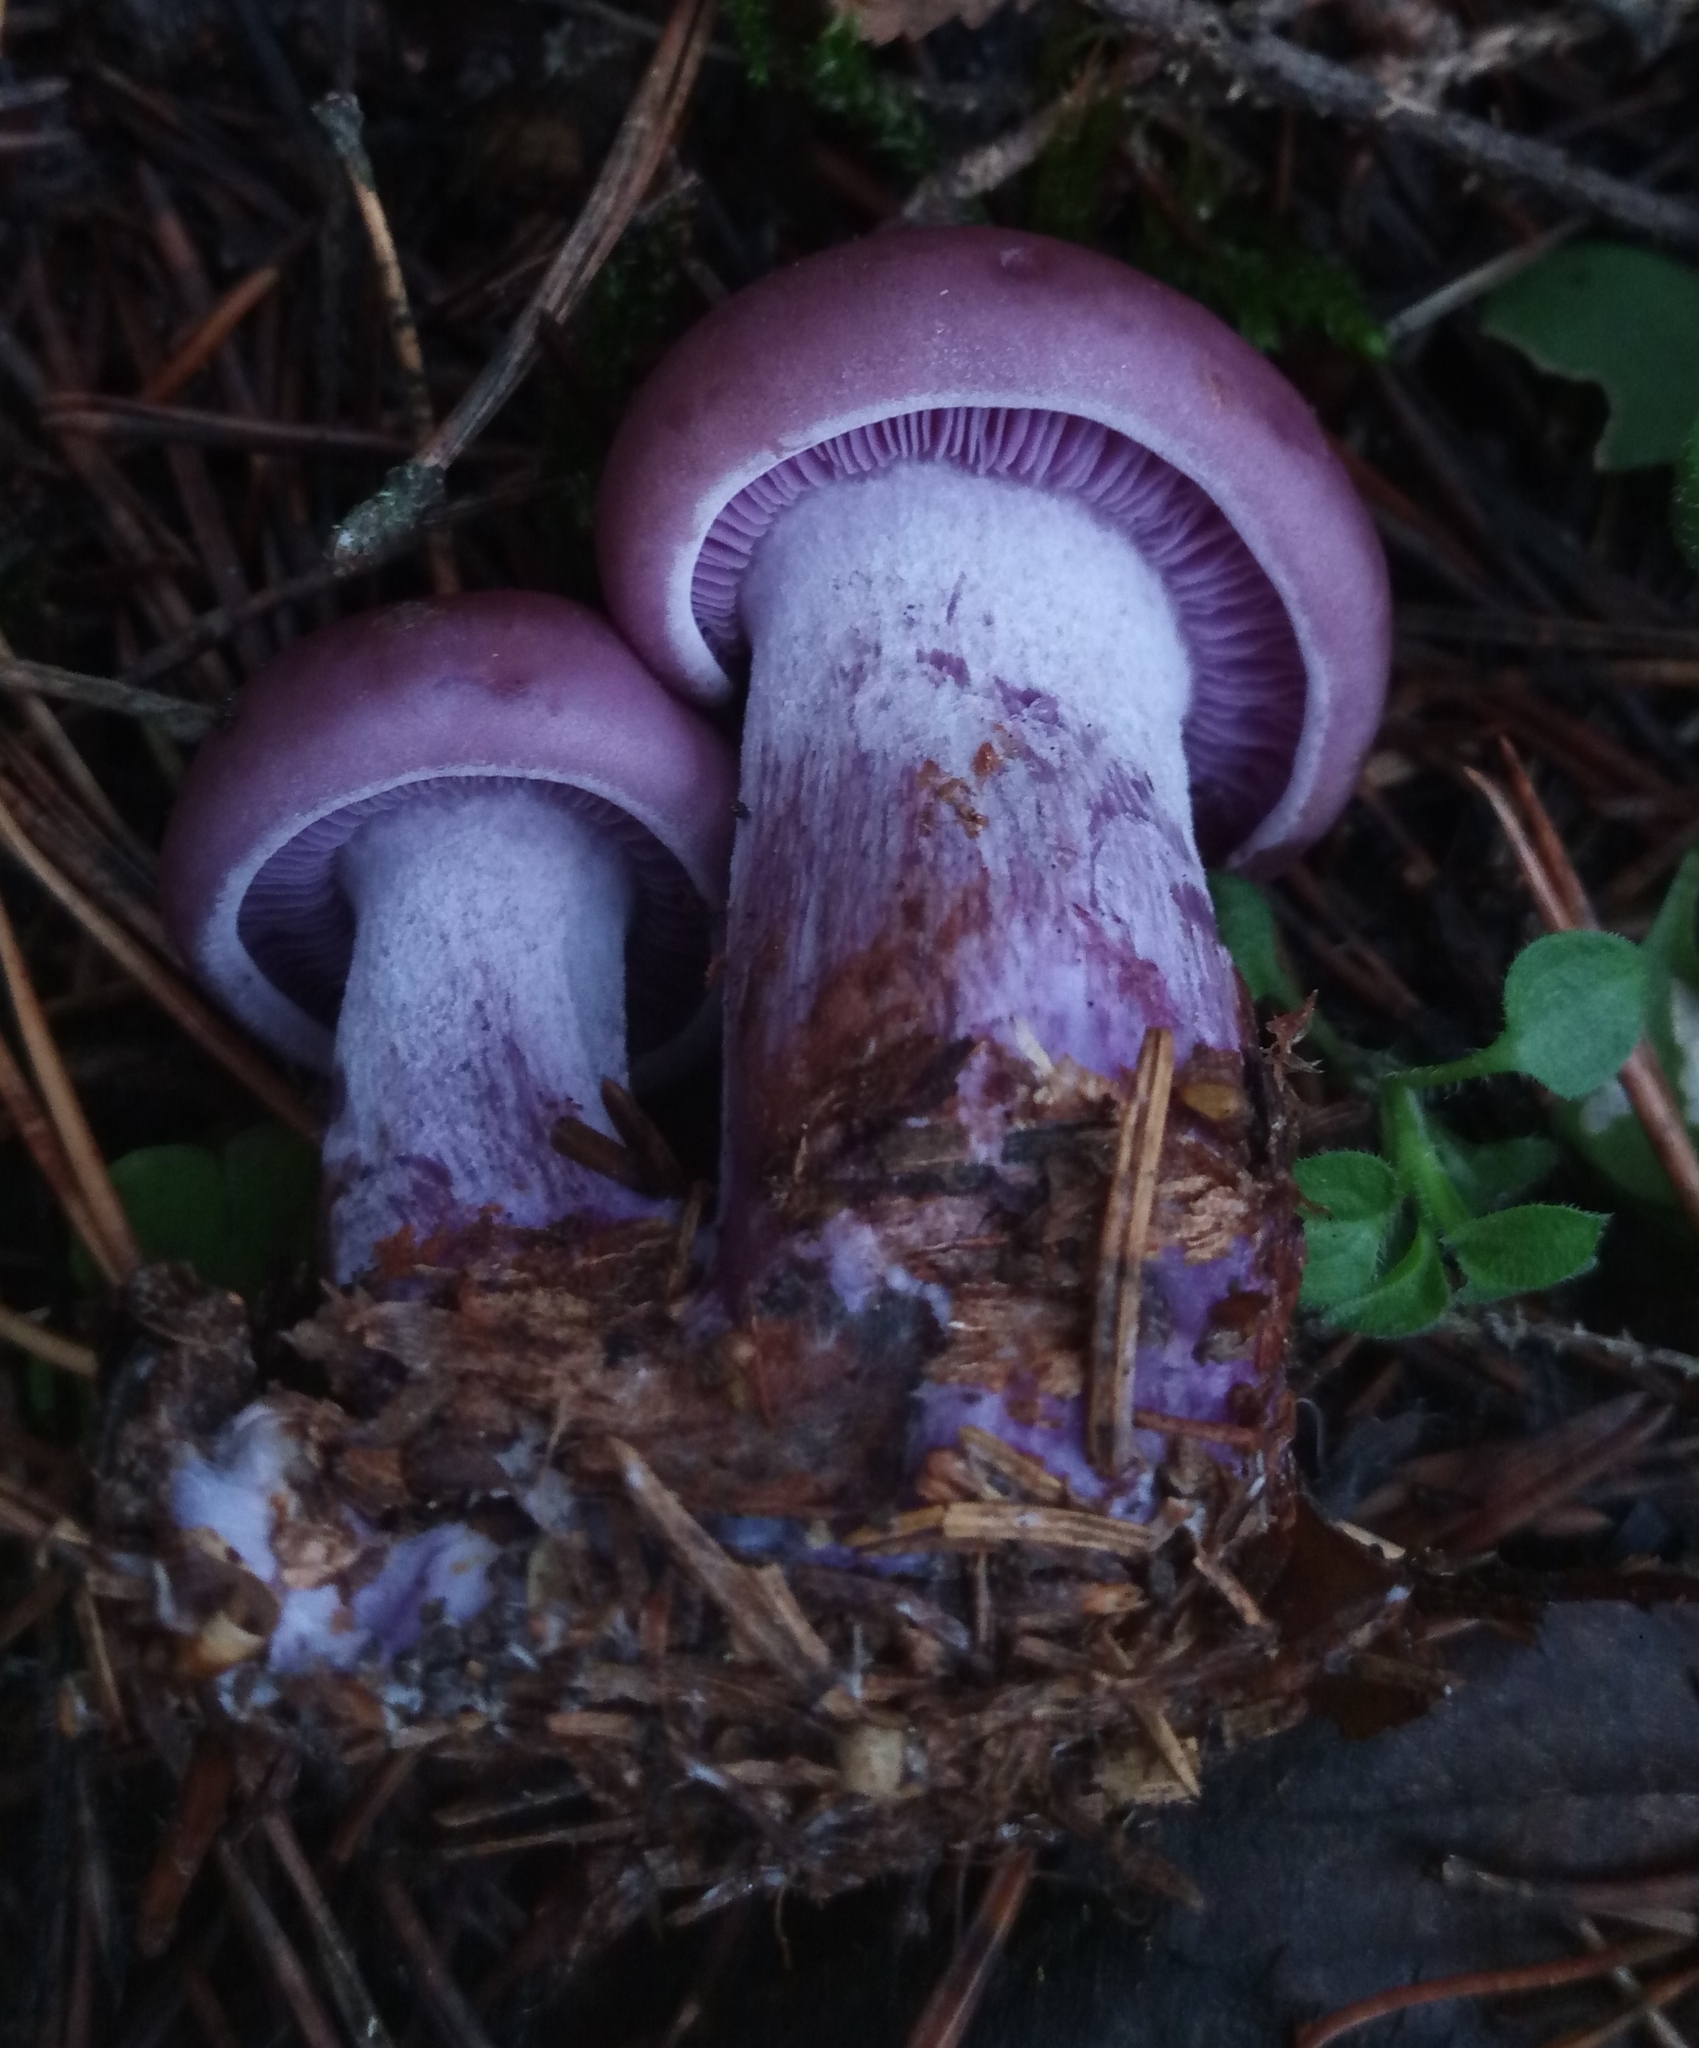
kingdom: Fungi
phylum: Basidiomycota
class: Agaricomycetes
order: Agaricales
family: Tricholomataceae
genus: Collybia
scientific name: Collybia
